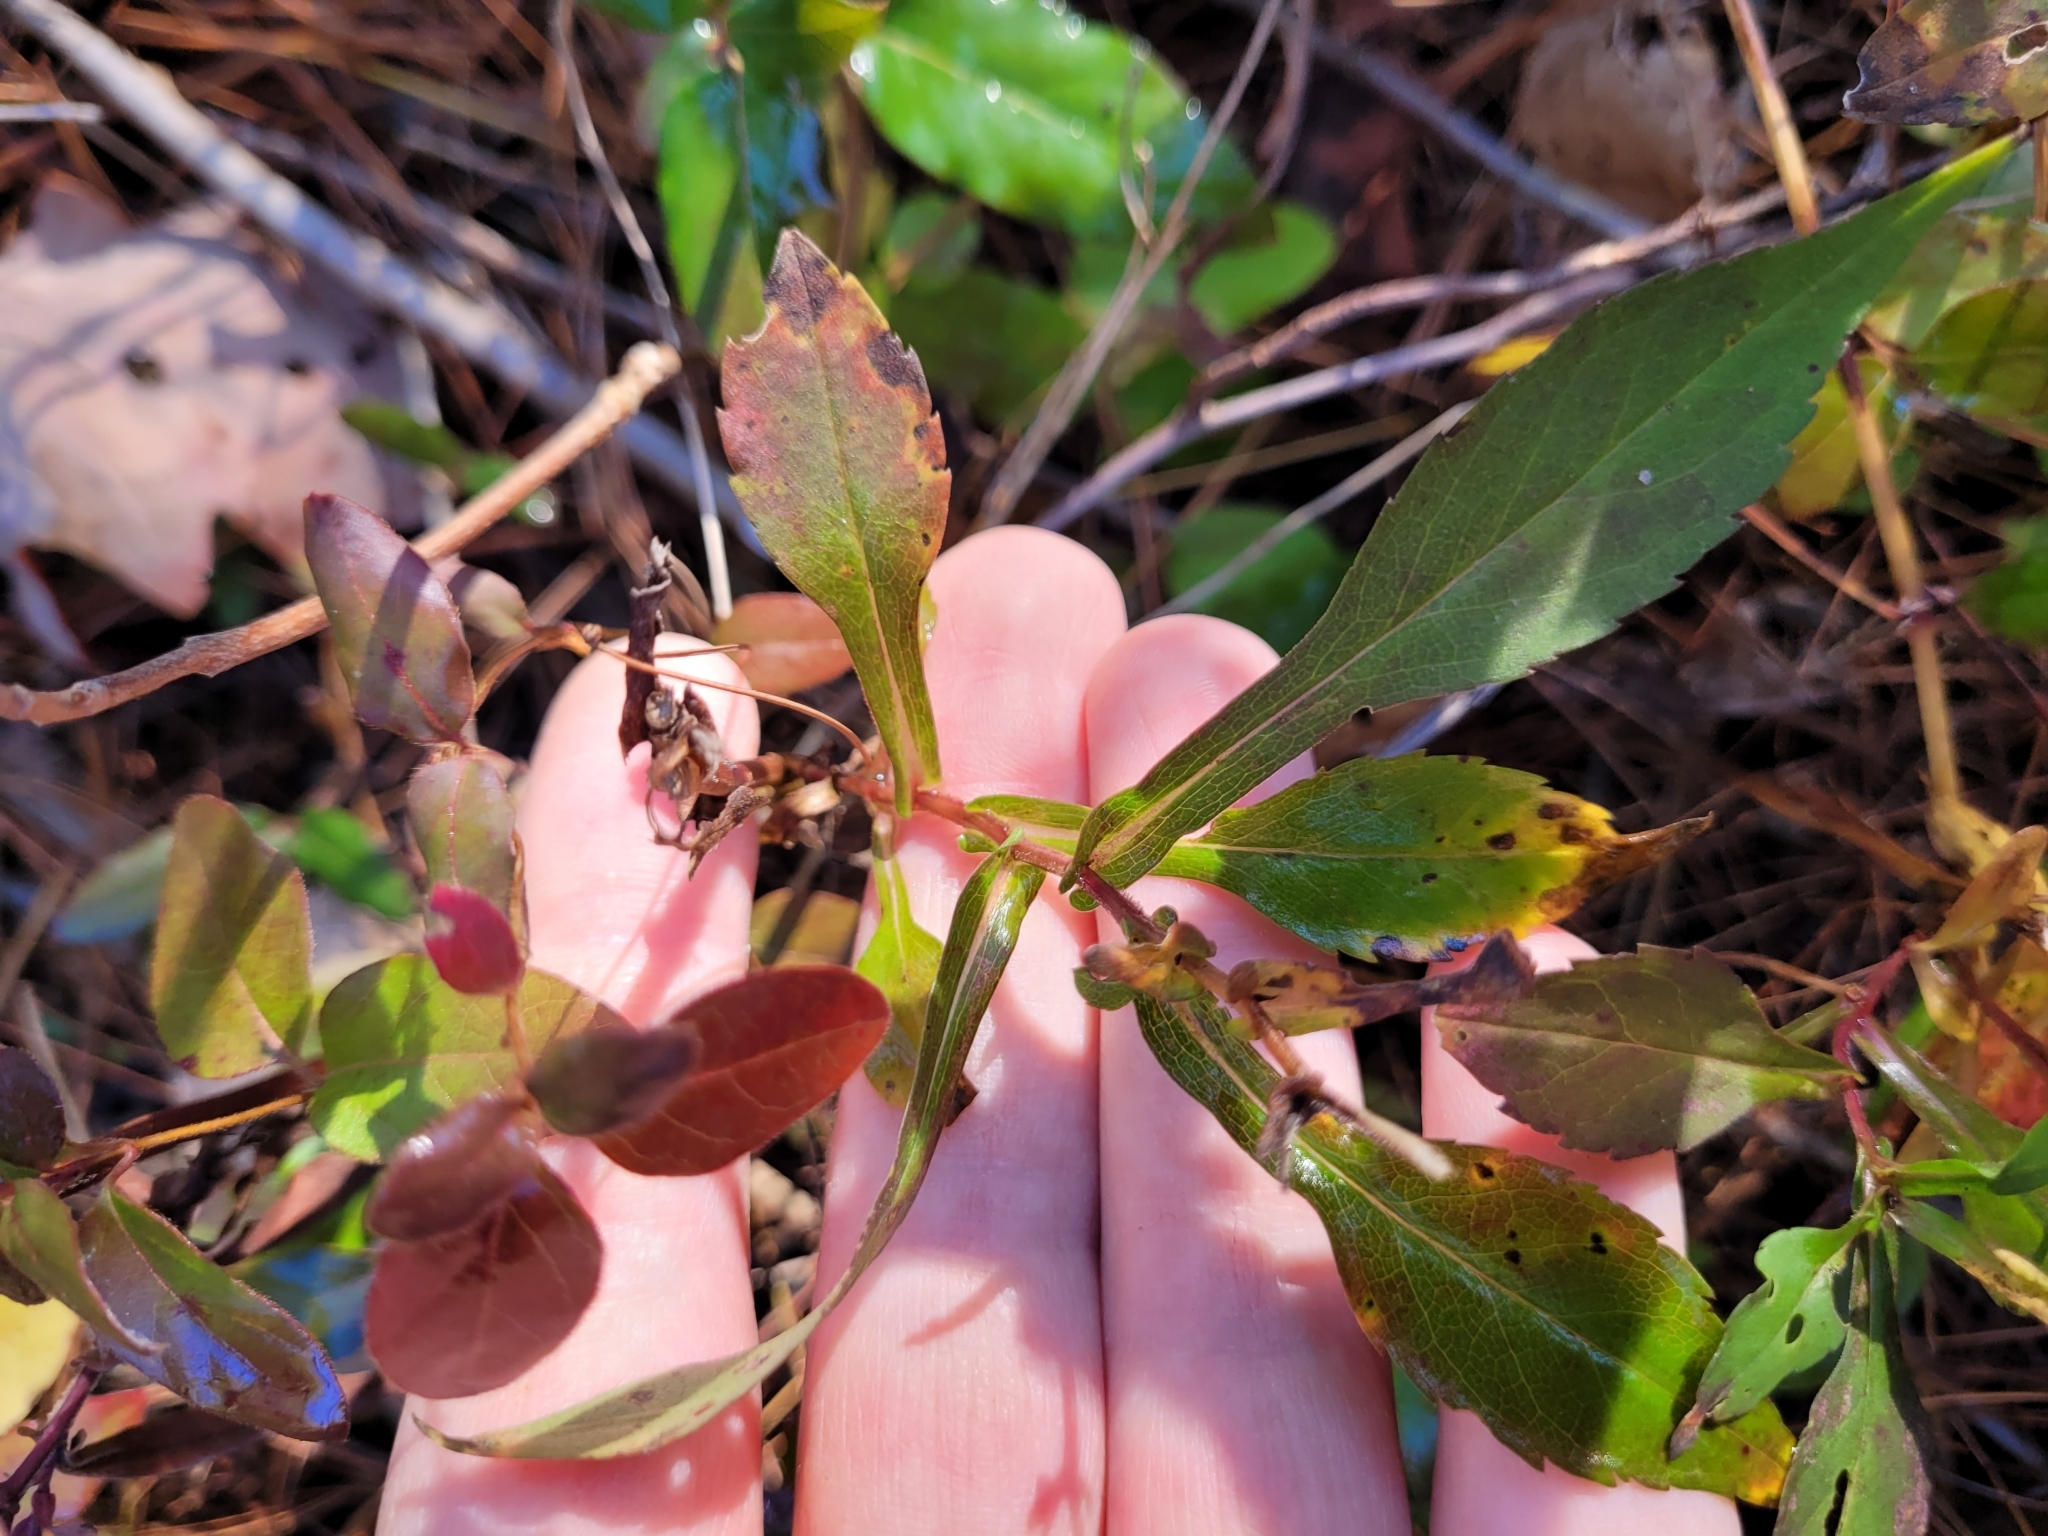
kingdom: Plantae
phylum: Tracheophyta
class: Magnoliopsida
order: Asterales
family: Asteraceae
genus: Symphyotrichum
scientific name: Symphyotrichum prenanthoides
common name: Crooked-stem aster
